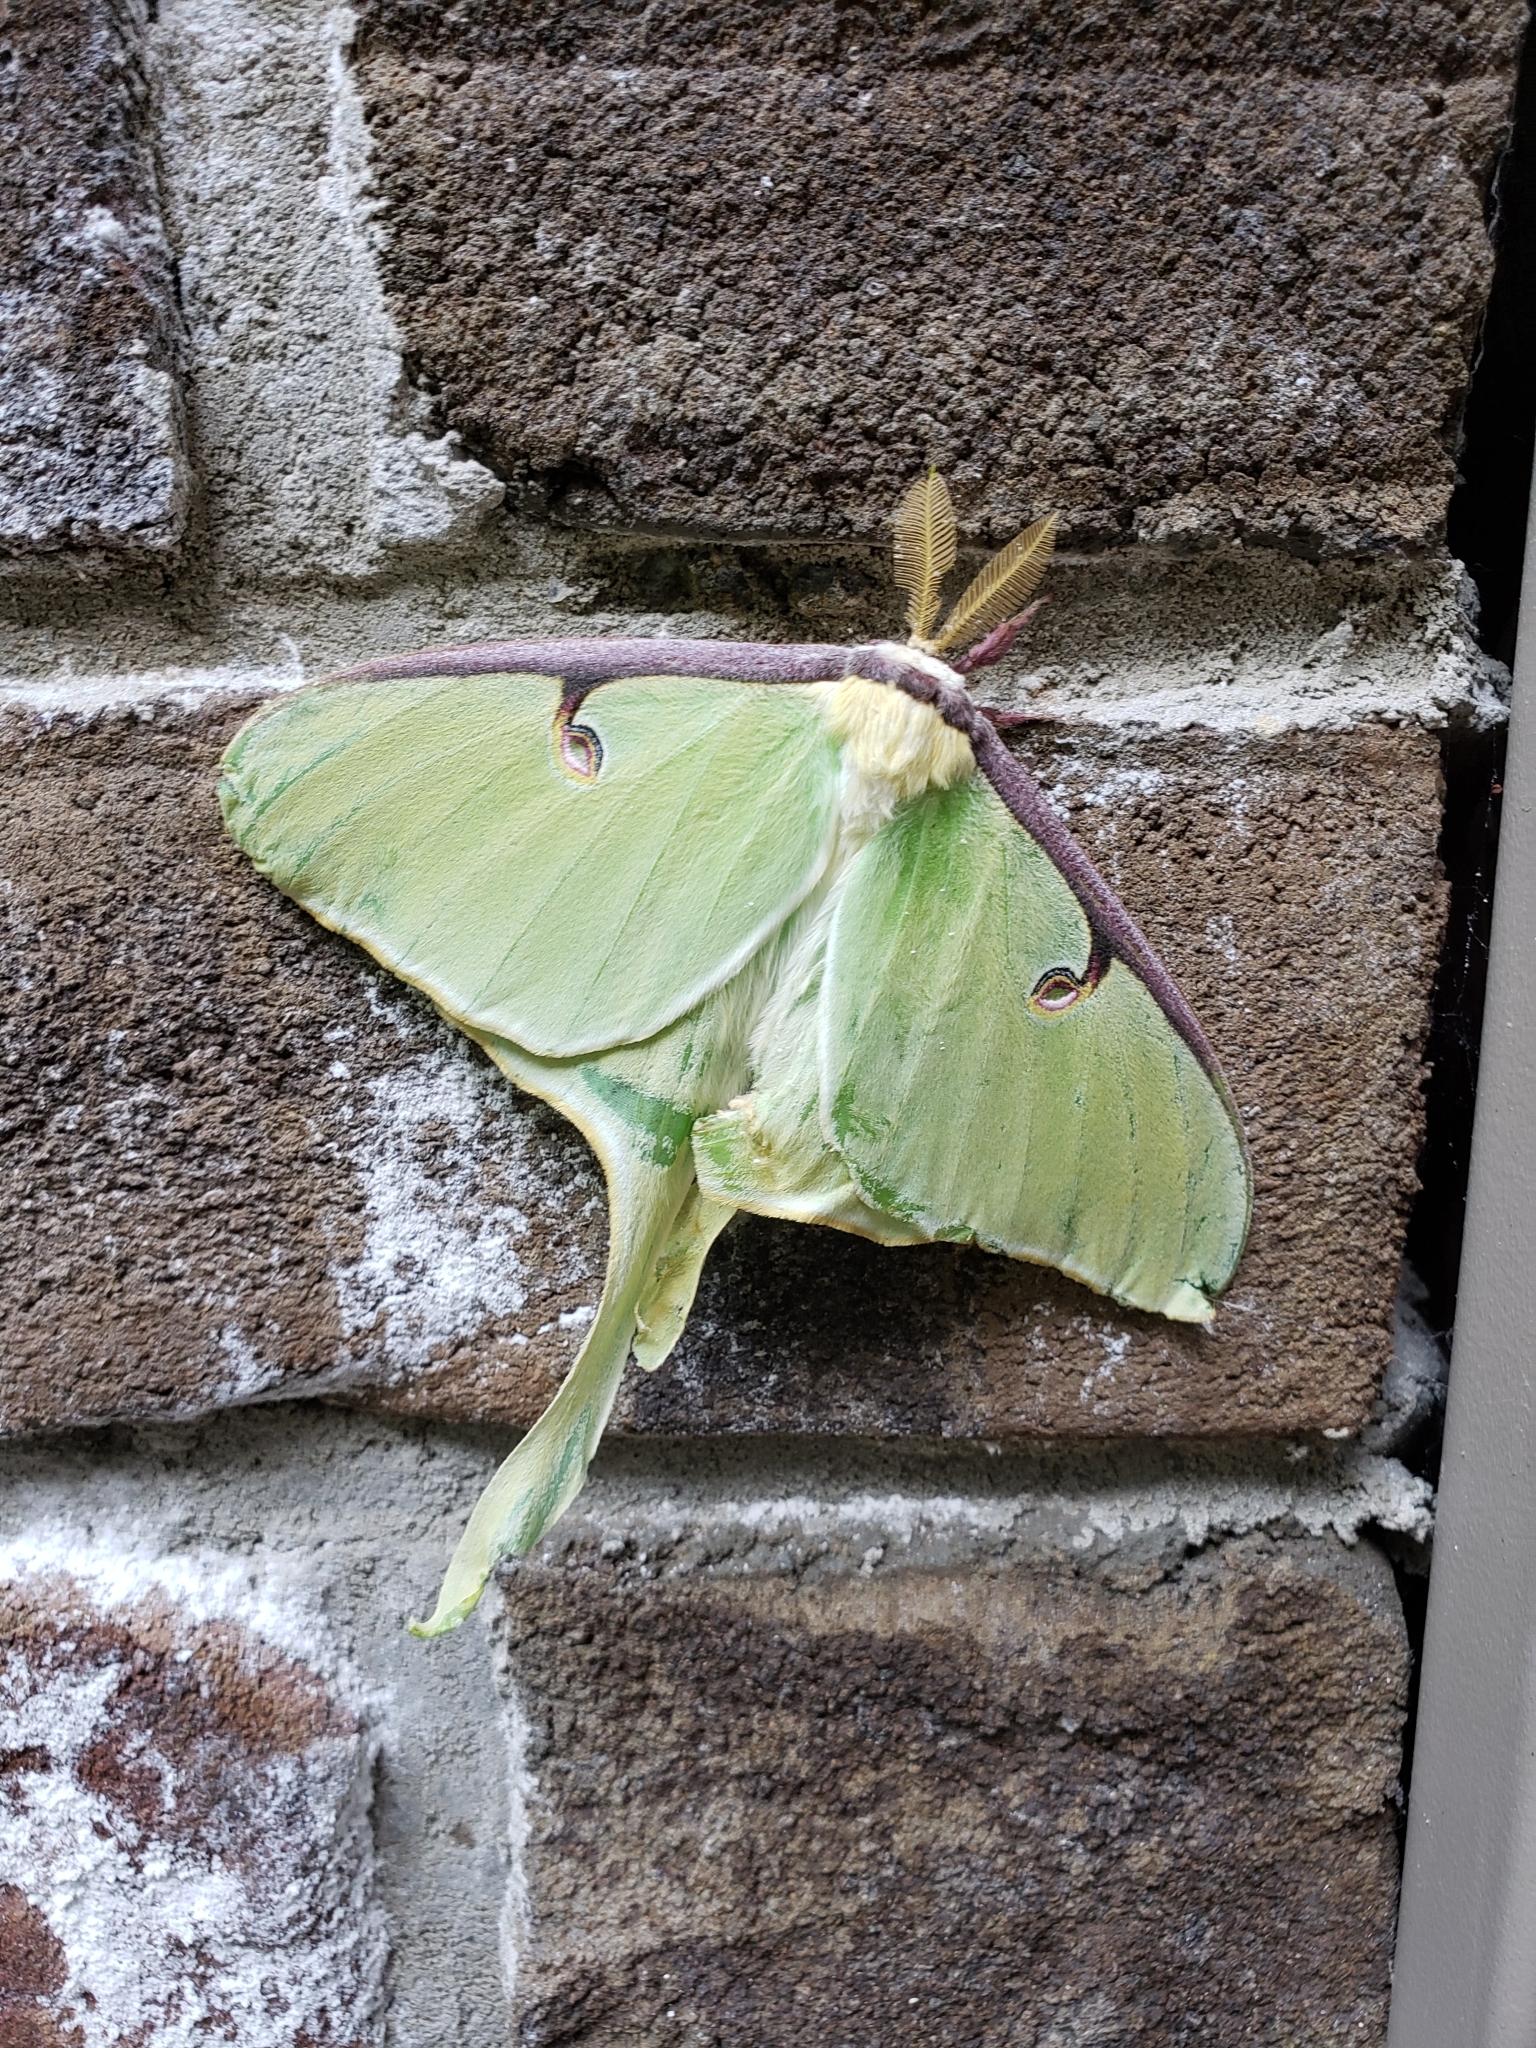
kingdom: Animalia
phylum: Arthropoda
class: Insecta
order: Lepidoptera
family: Saturniidae
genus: Actias
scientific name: Actias luna
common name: Luna moth
